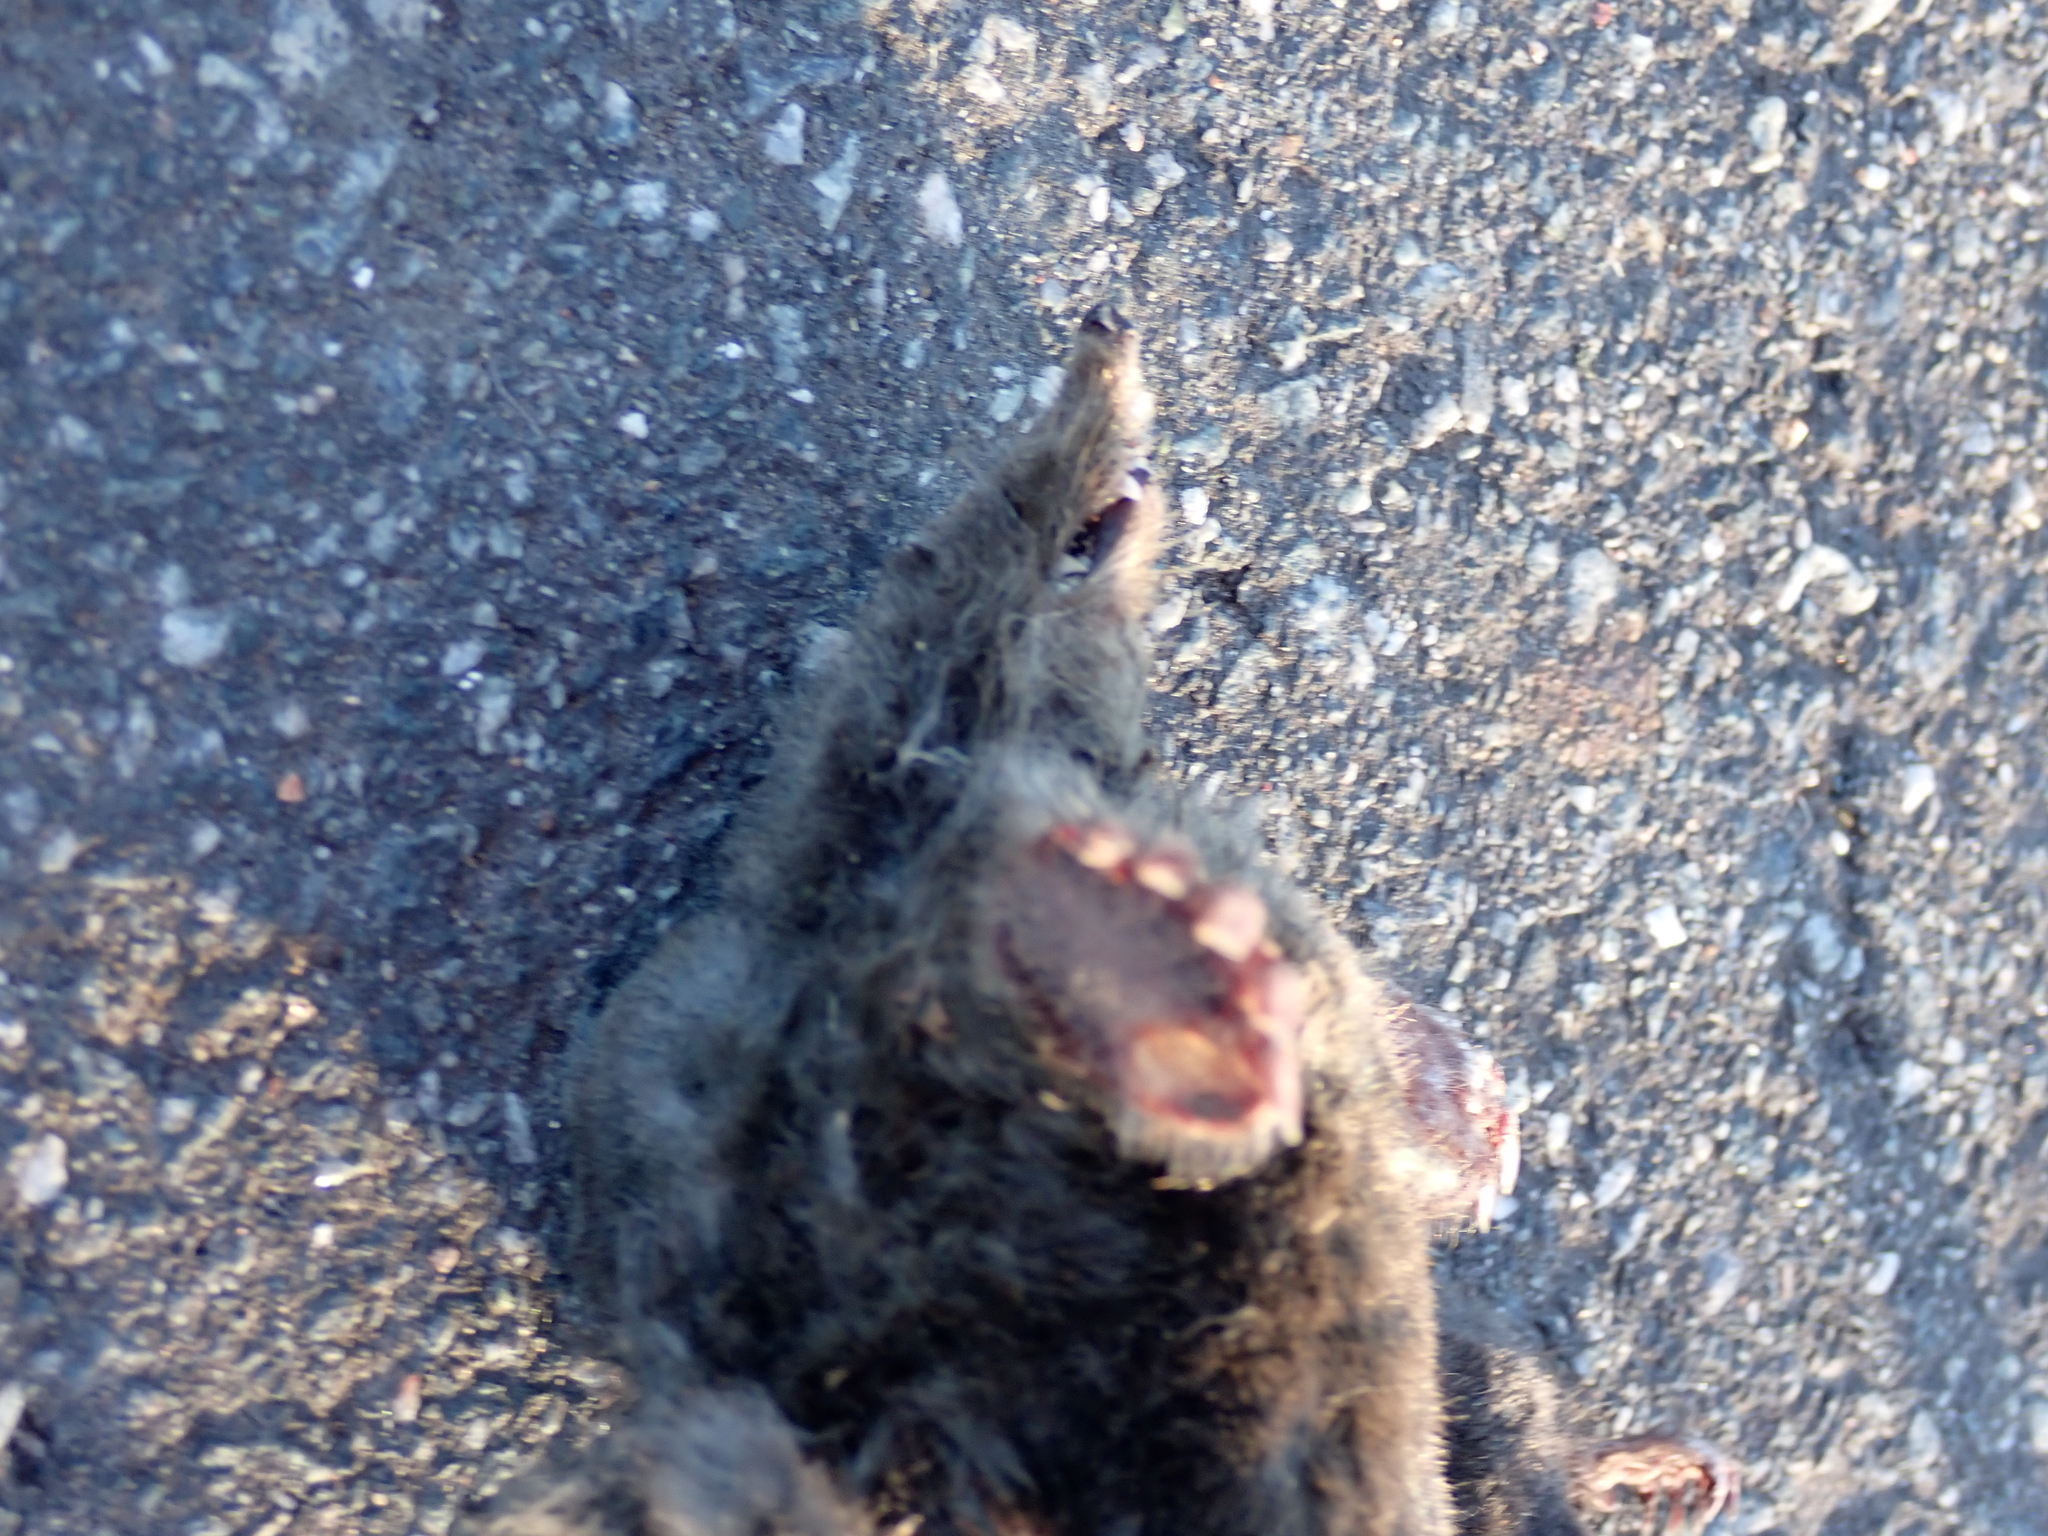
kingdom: Animalia
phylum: Chordata
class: Mammalia
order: Soricomorpha
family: Talpidae
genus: Talpa
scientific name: Talpa europaea
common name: European mole
